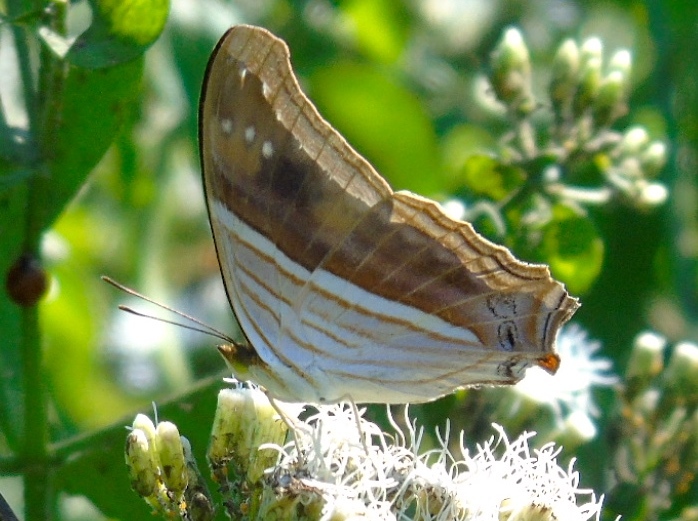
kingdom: Animalia
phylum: Arthropoda
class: Insecta
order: Lepidoptera
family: Nymphalidae
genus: Marpesia
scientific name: Marpesia chiron
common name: Many-banded daggerwing
